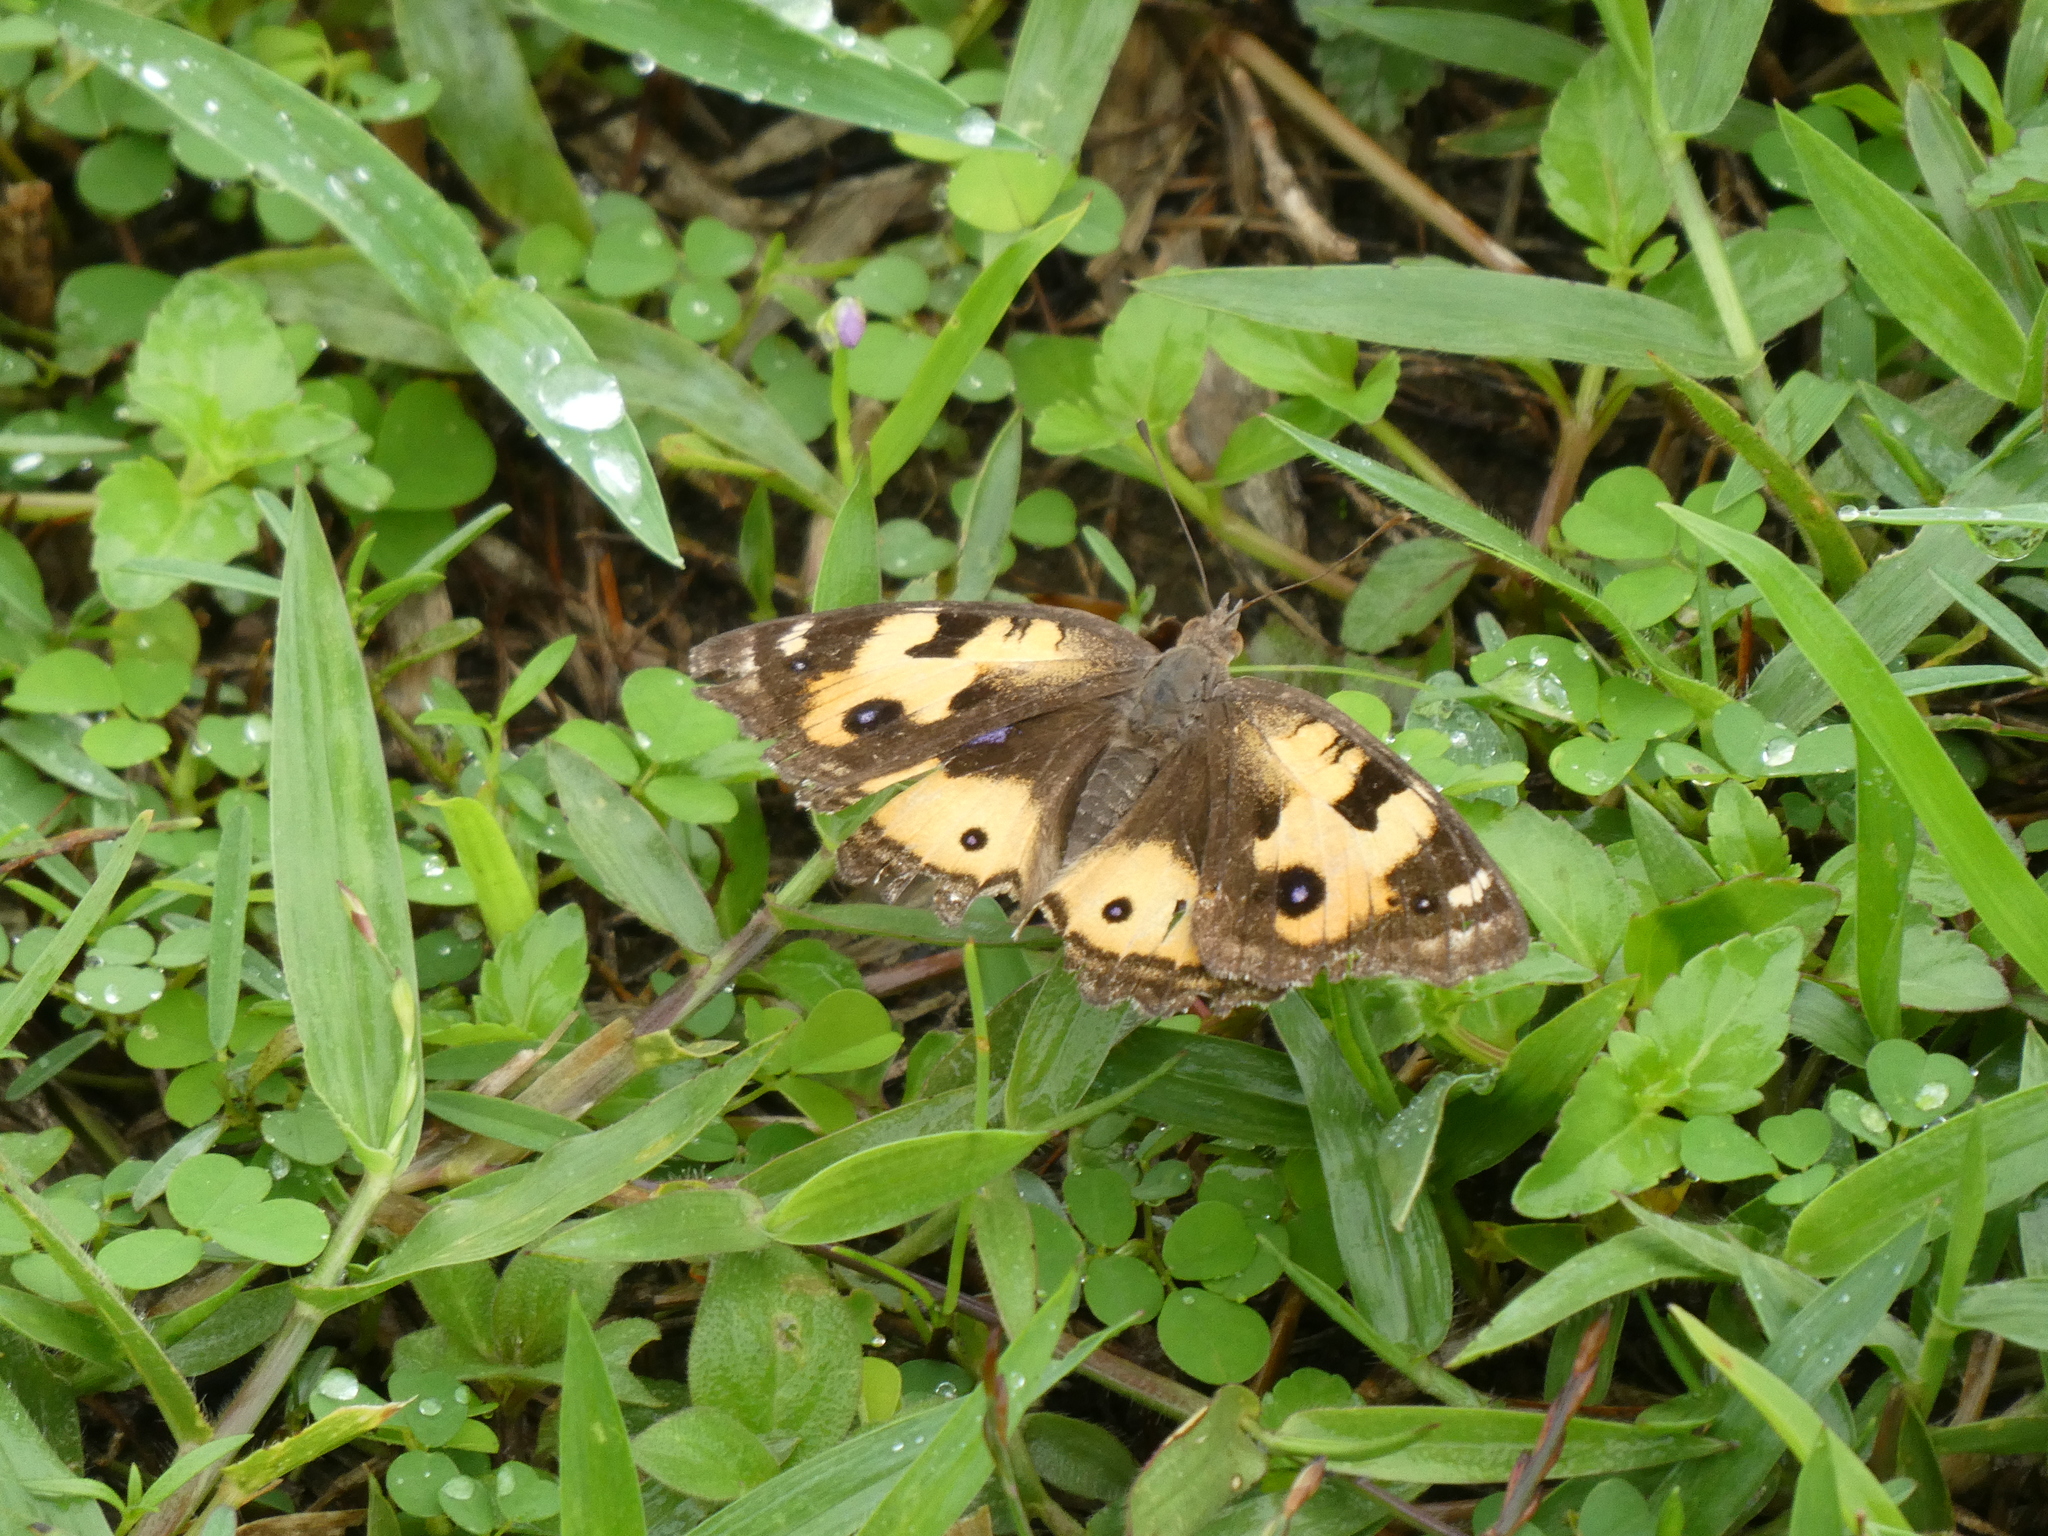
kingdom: Animalia
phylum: Arthropoda
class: Insecta
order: Lepidoptera
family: Nymphalidae
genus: Junonia
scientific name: Junonia hierta
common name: Yellow pansy
